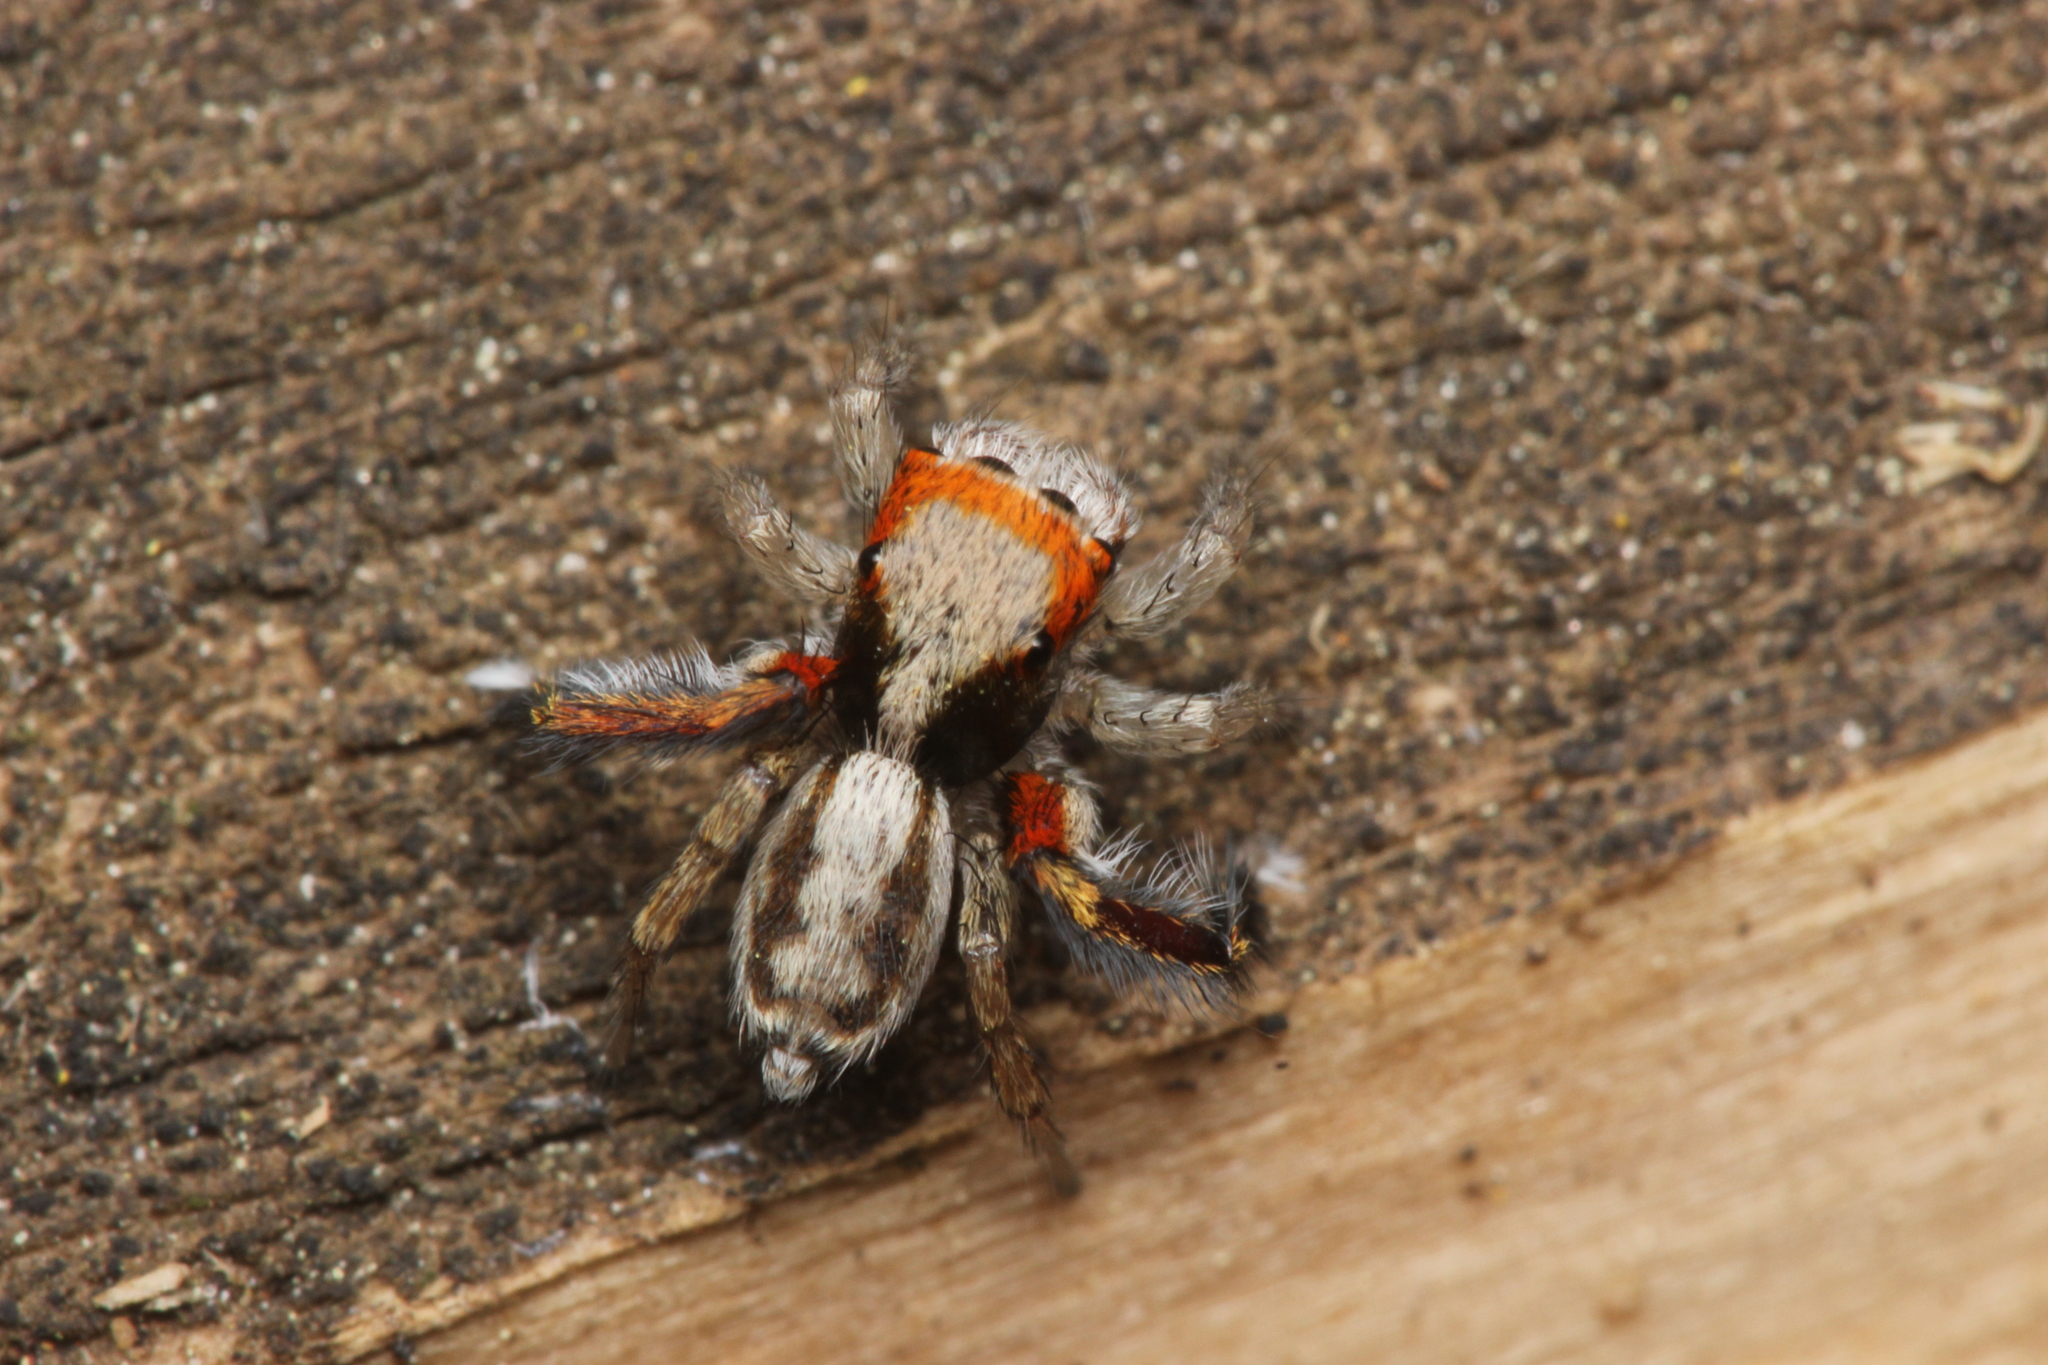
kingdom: Animalia
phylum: Arthropoda
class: Arachnida
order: Araneae
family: Salticidae
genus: Saitis
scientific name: Saitis barbipes
